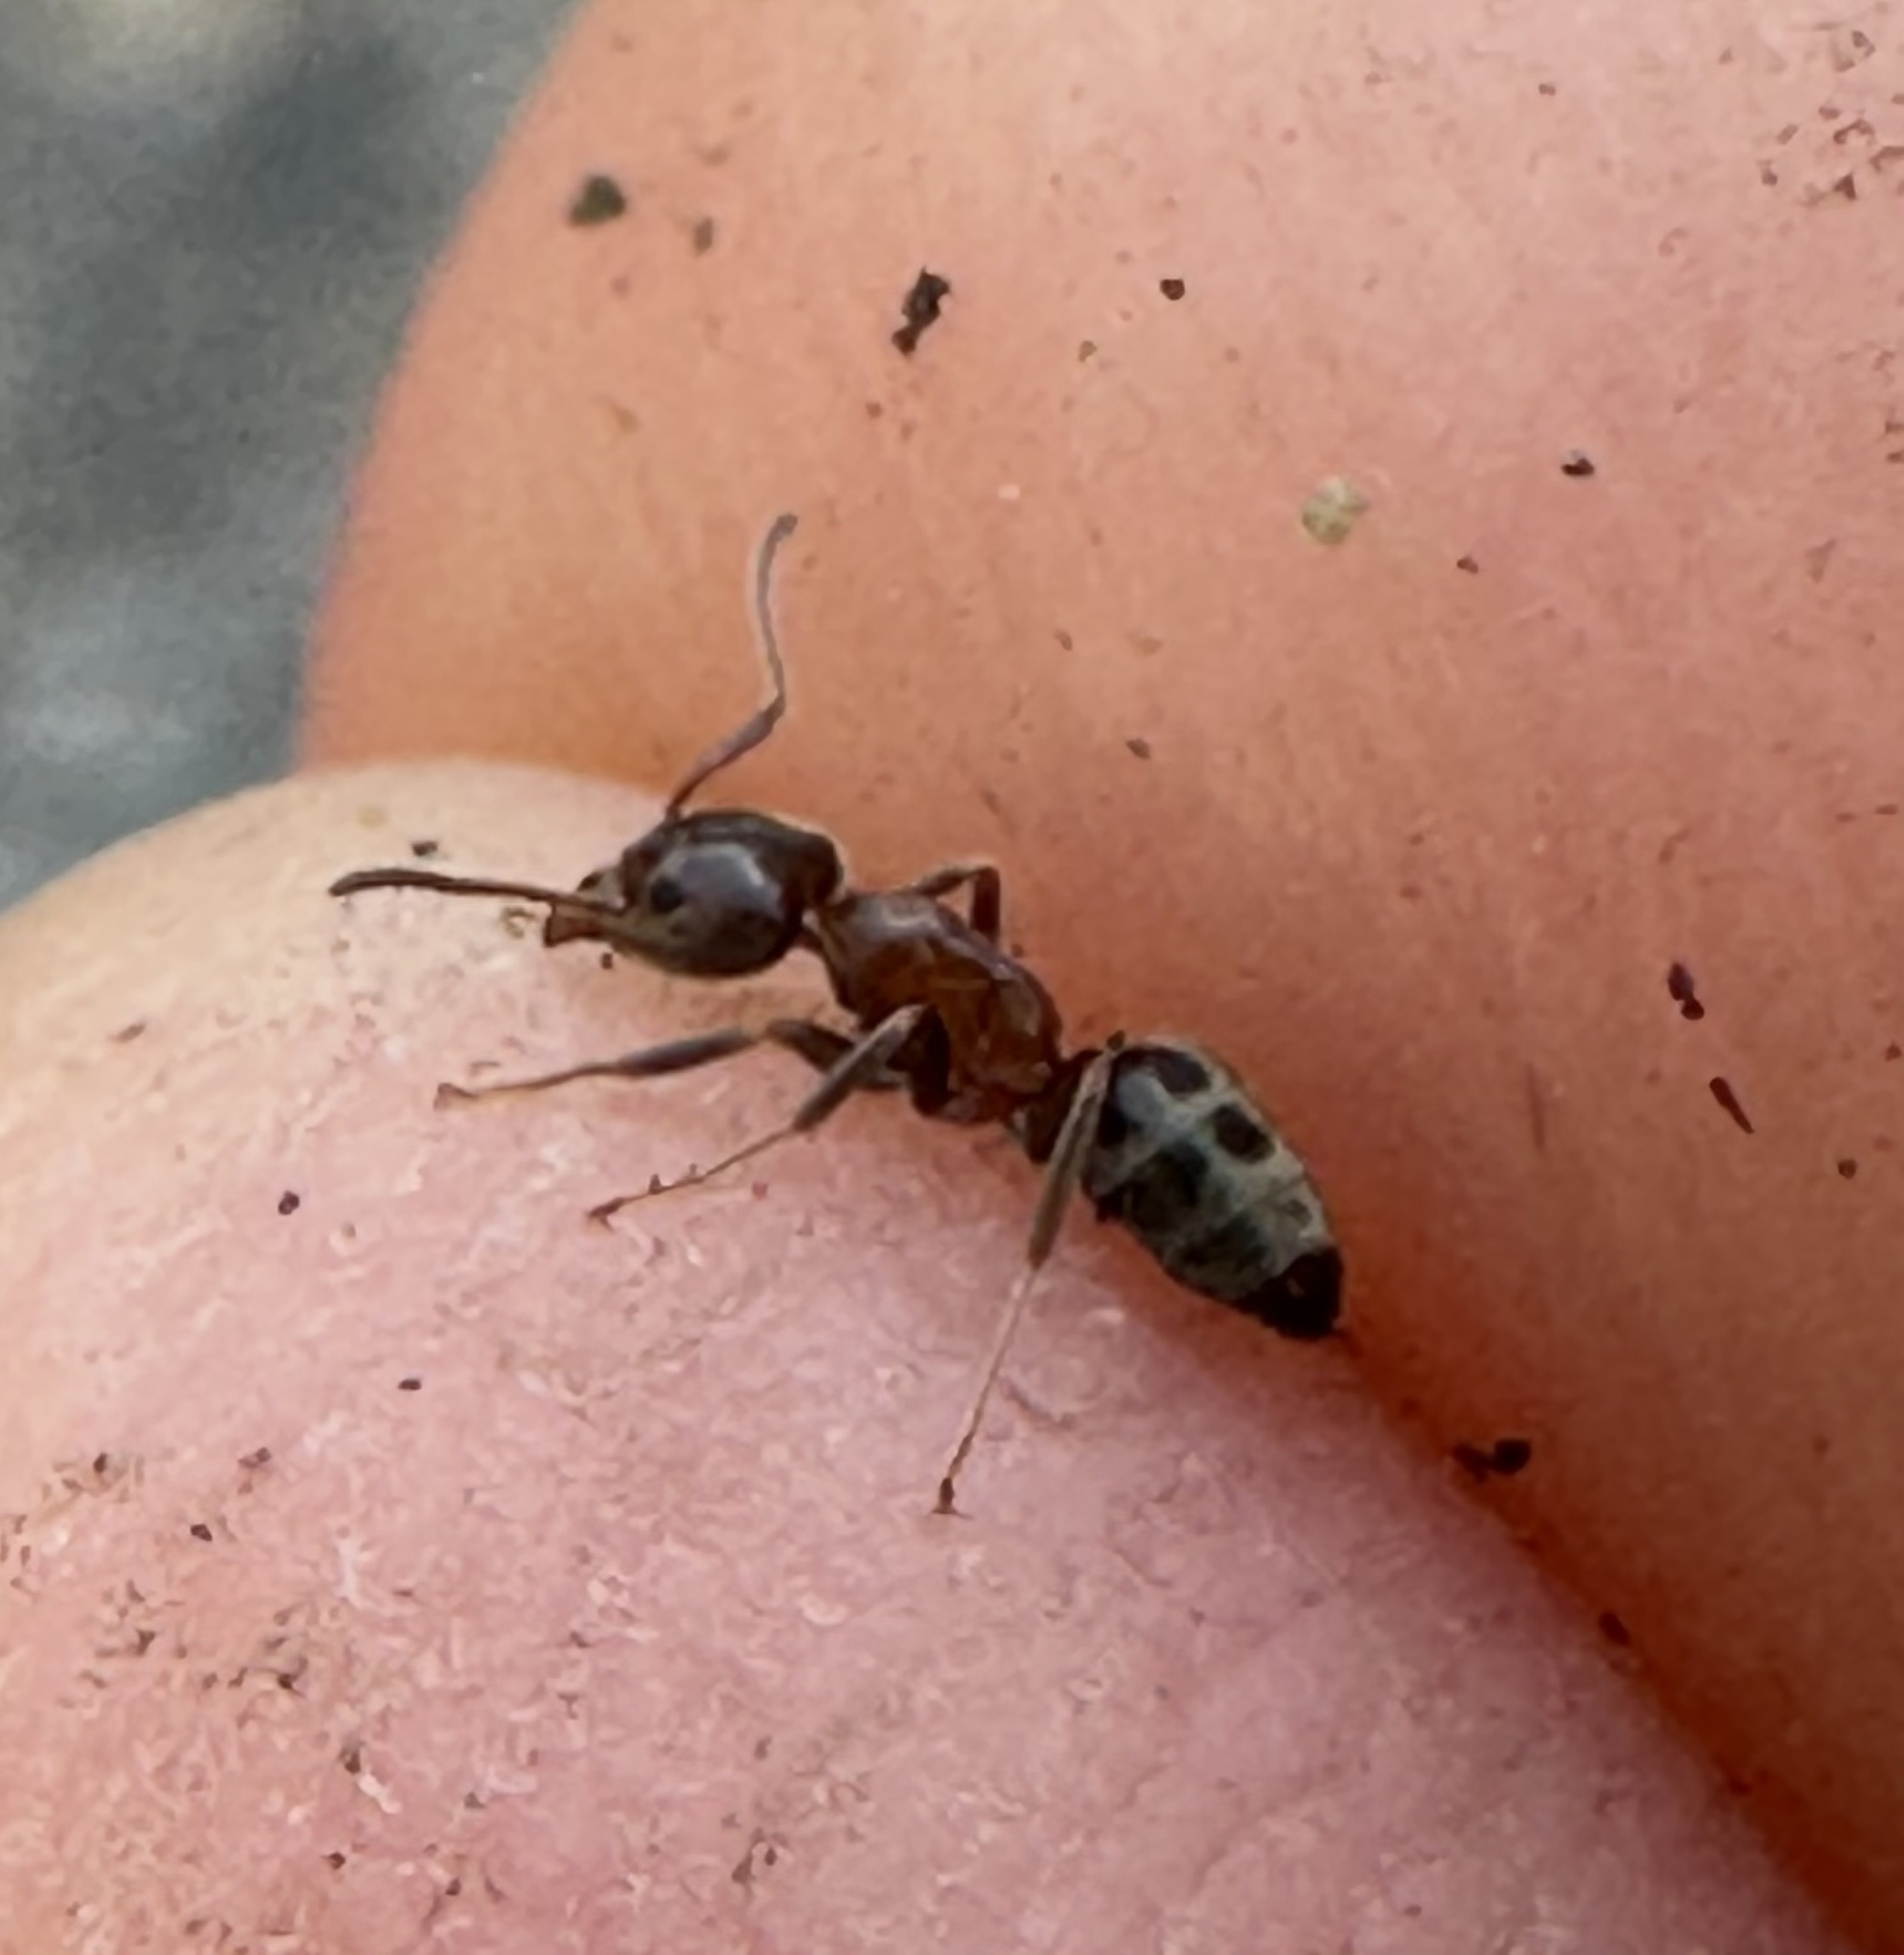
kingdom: Animalia
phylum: Arthropoda
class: Insecta
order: Hymenoptera
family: Formicidae
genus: Liometopum
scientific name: Liometopum occidentale
